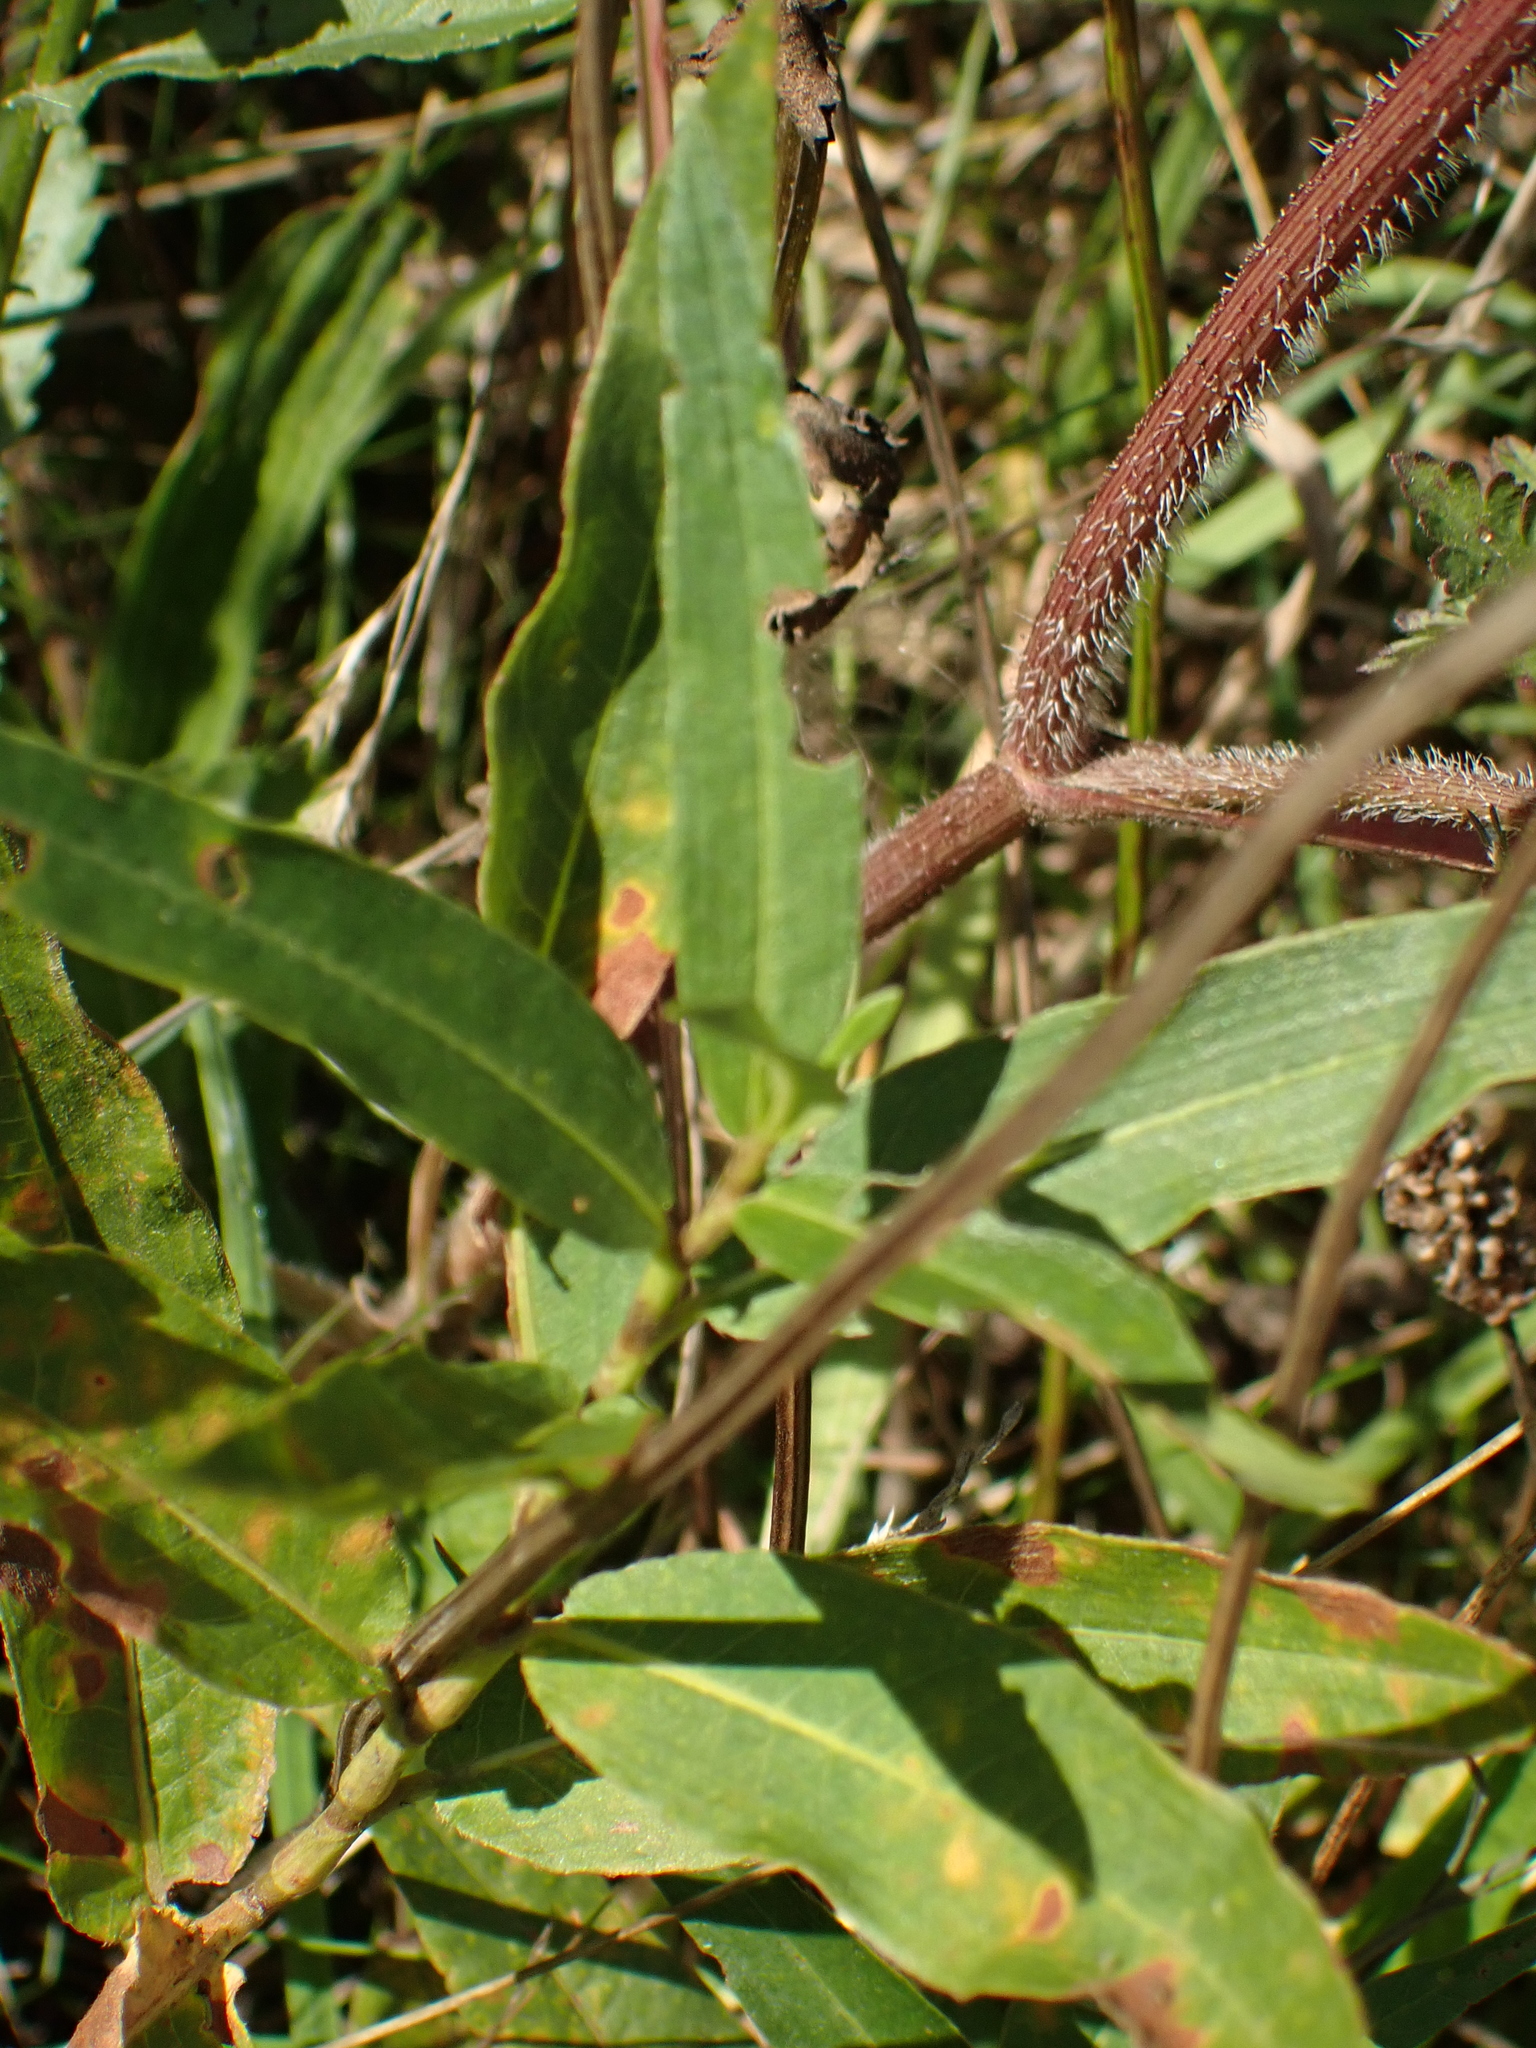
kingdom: Plantae
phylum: Tracheophyta
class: Magnoliopsida
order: Caryophyllales
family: Polygonaceae
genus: Persicaria
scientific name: Persicaria amphibia
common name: Amphibious bistort
